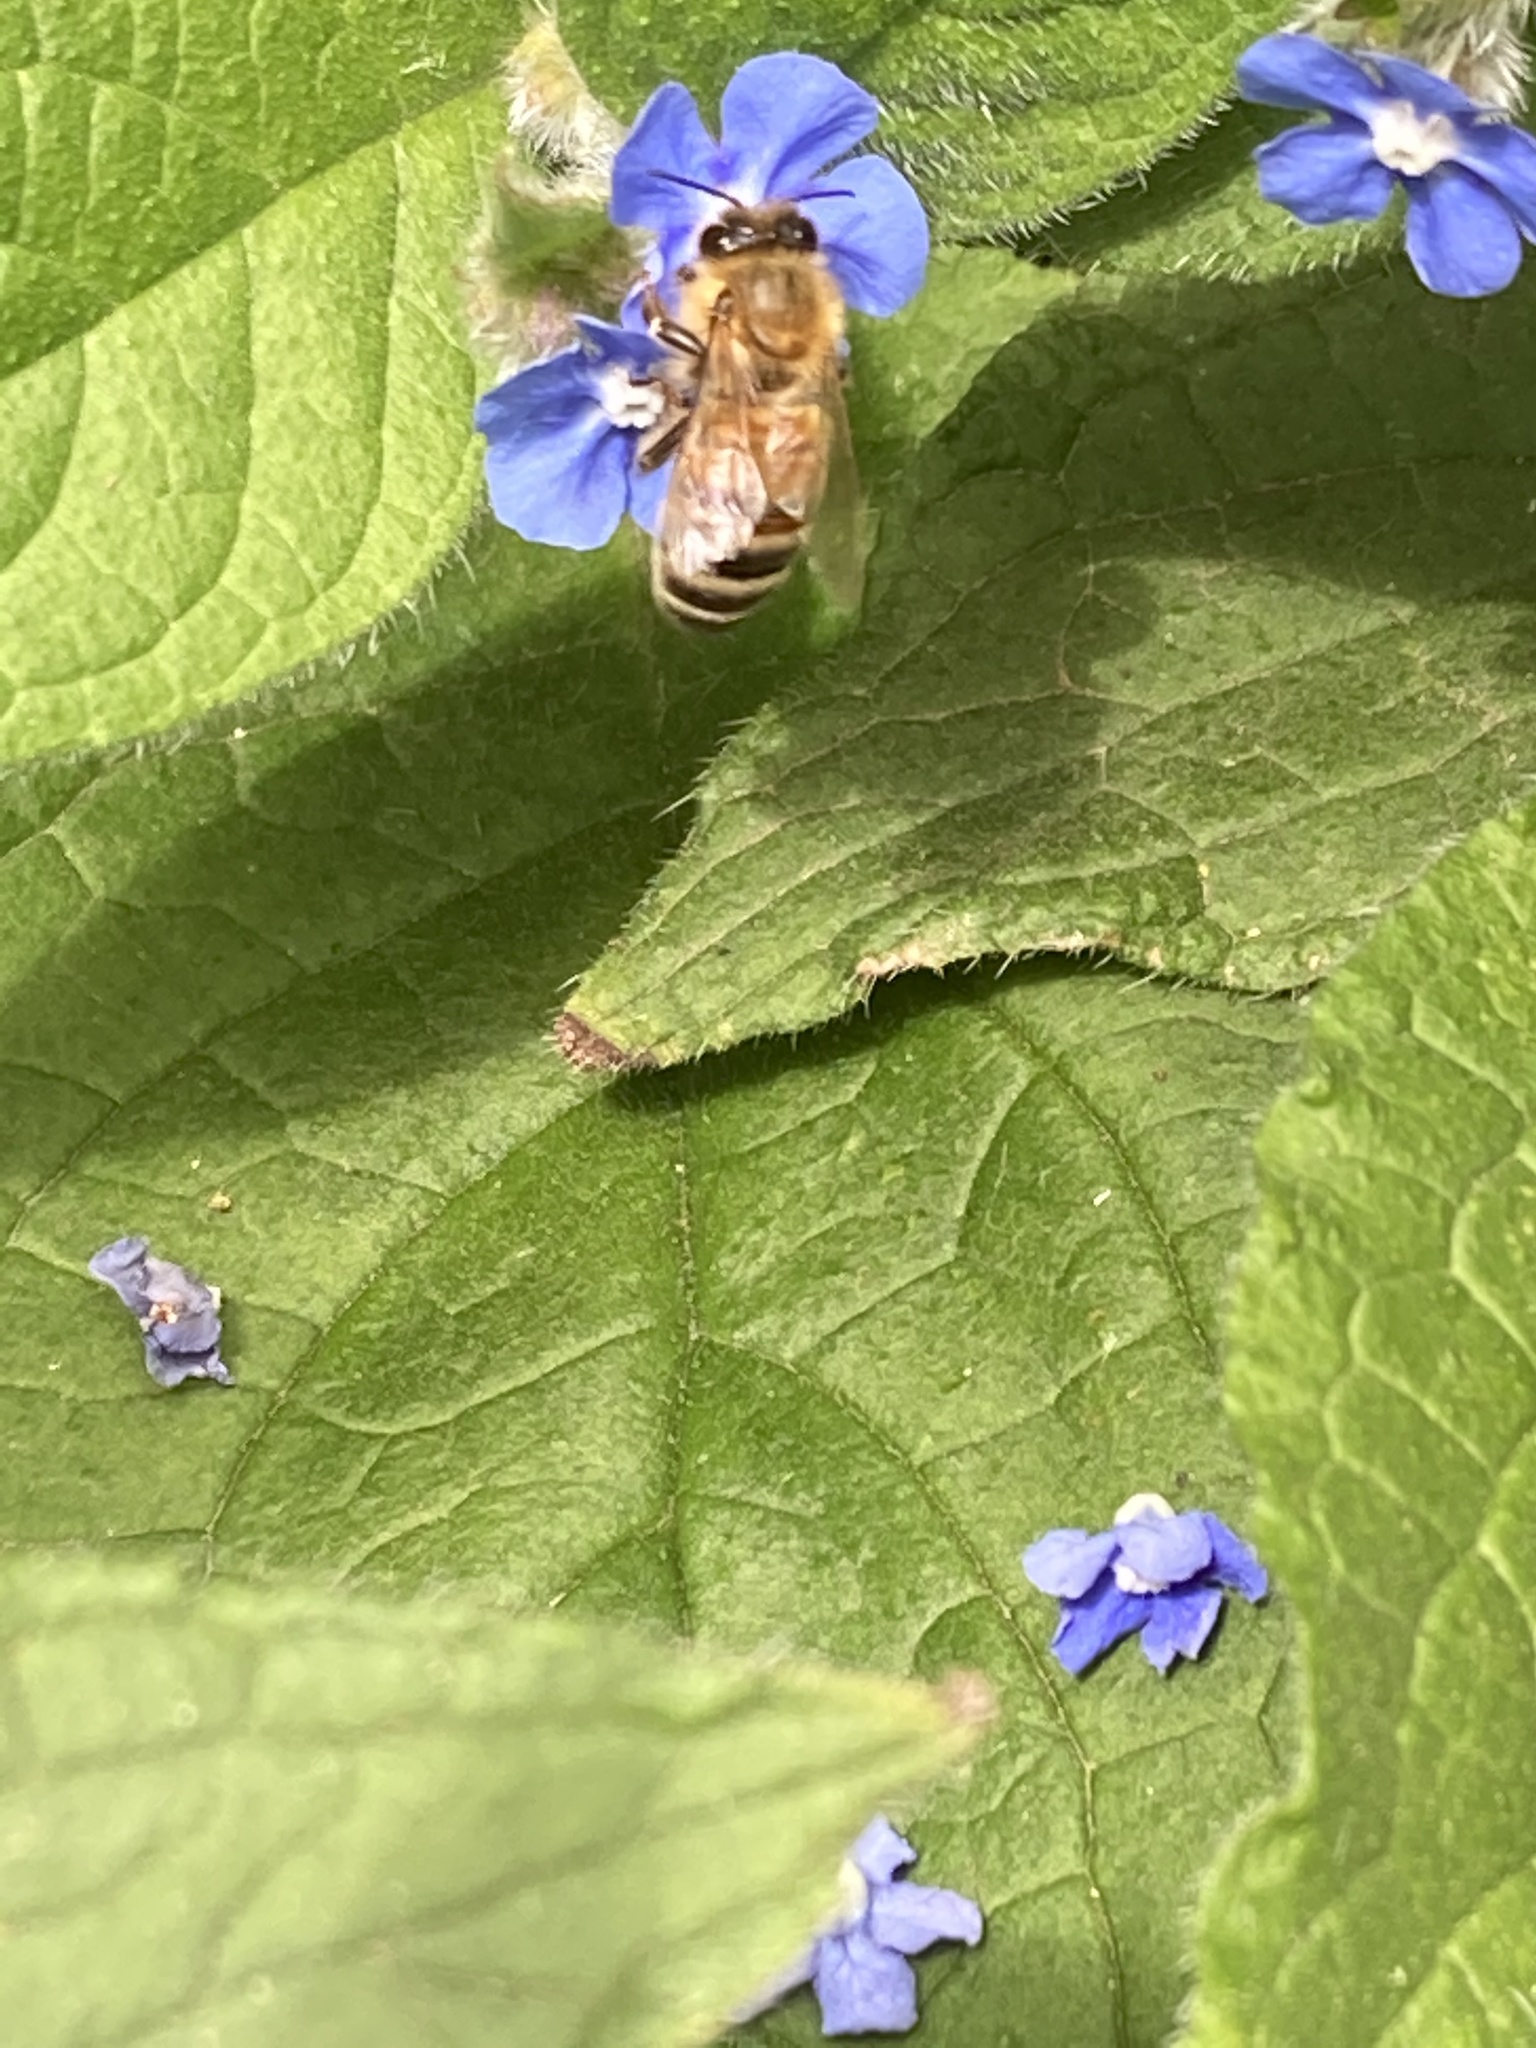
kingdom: Animalia
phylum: Arthropoda
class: Insecta
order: Hymenoptera
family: Apidae
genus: Apis
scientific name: Apis mellifera
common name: Honey bee
